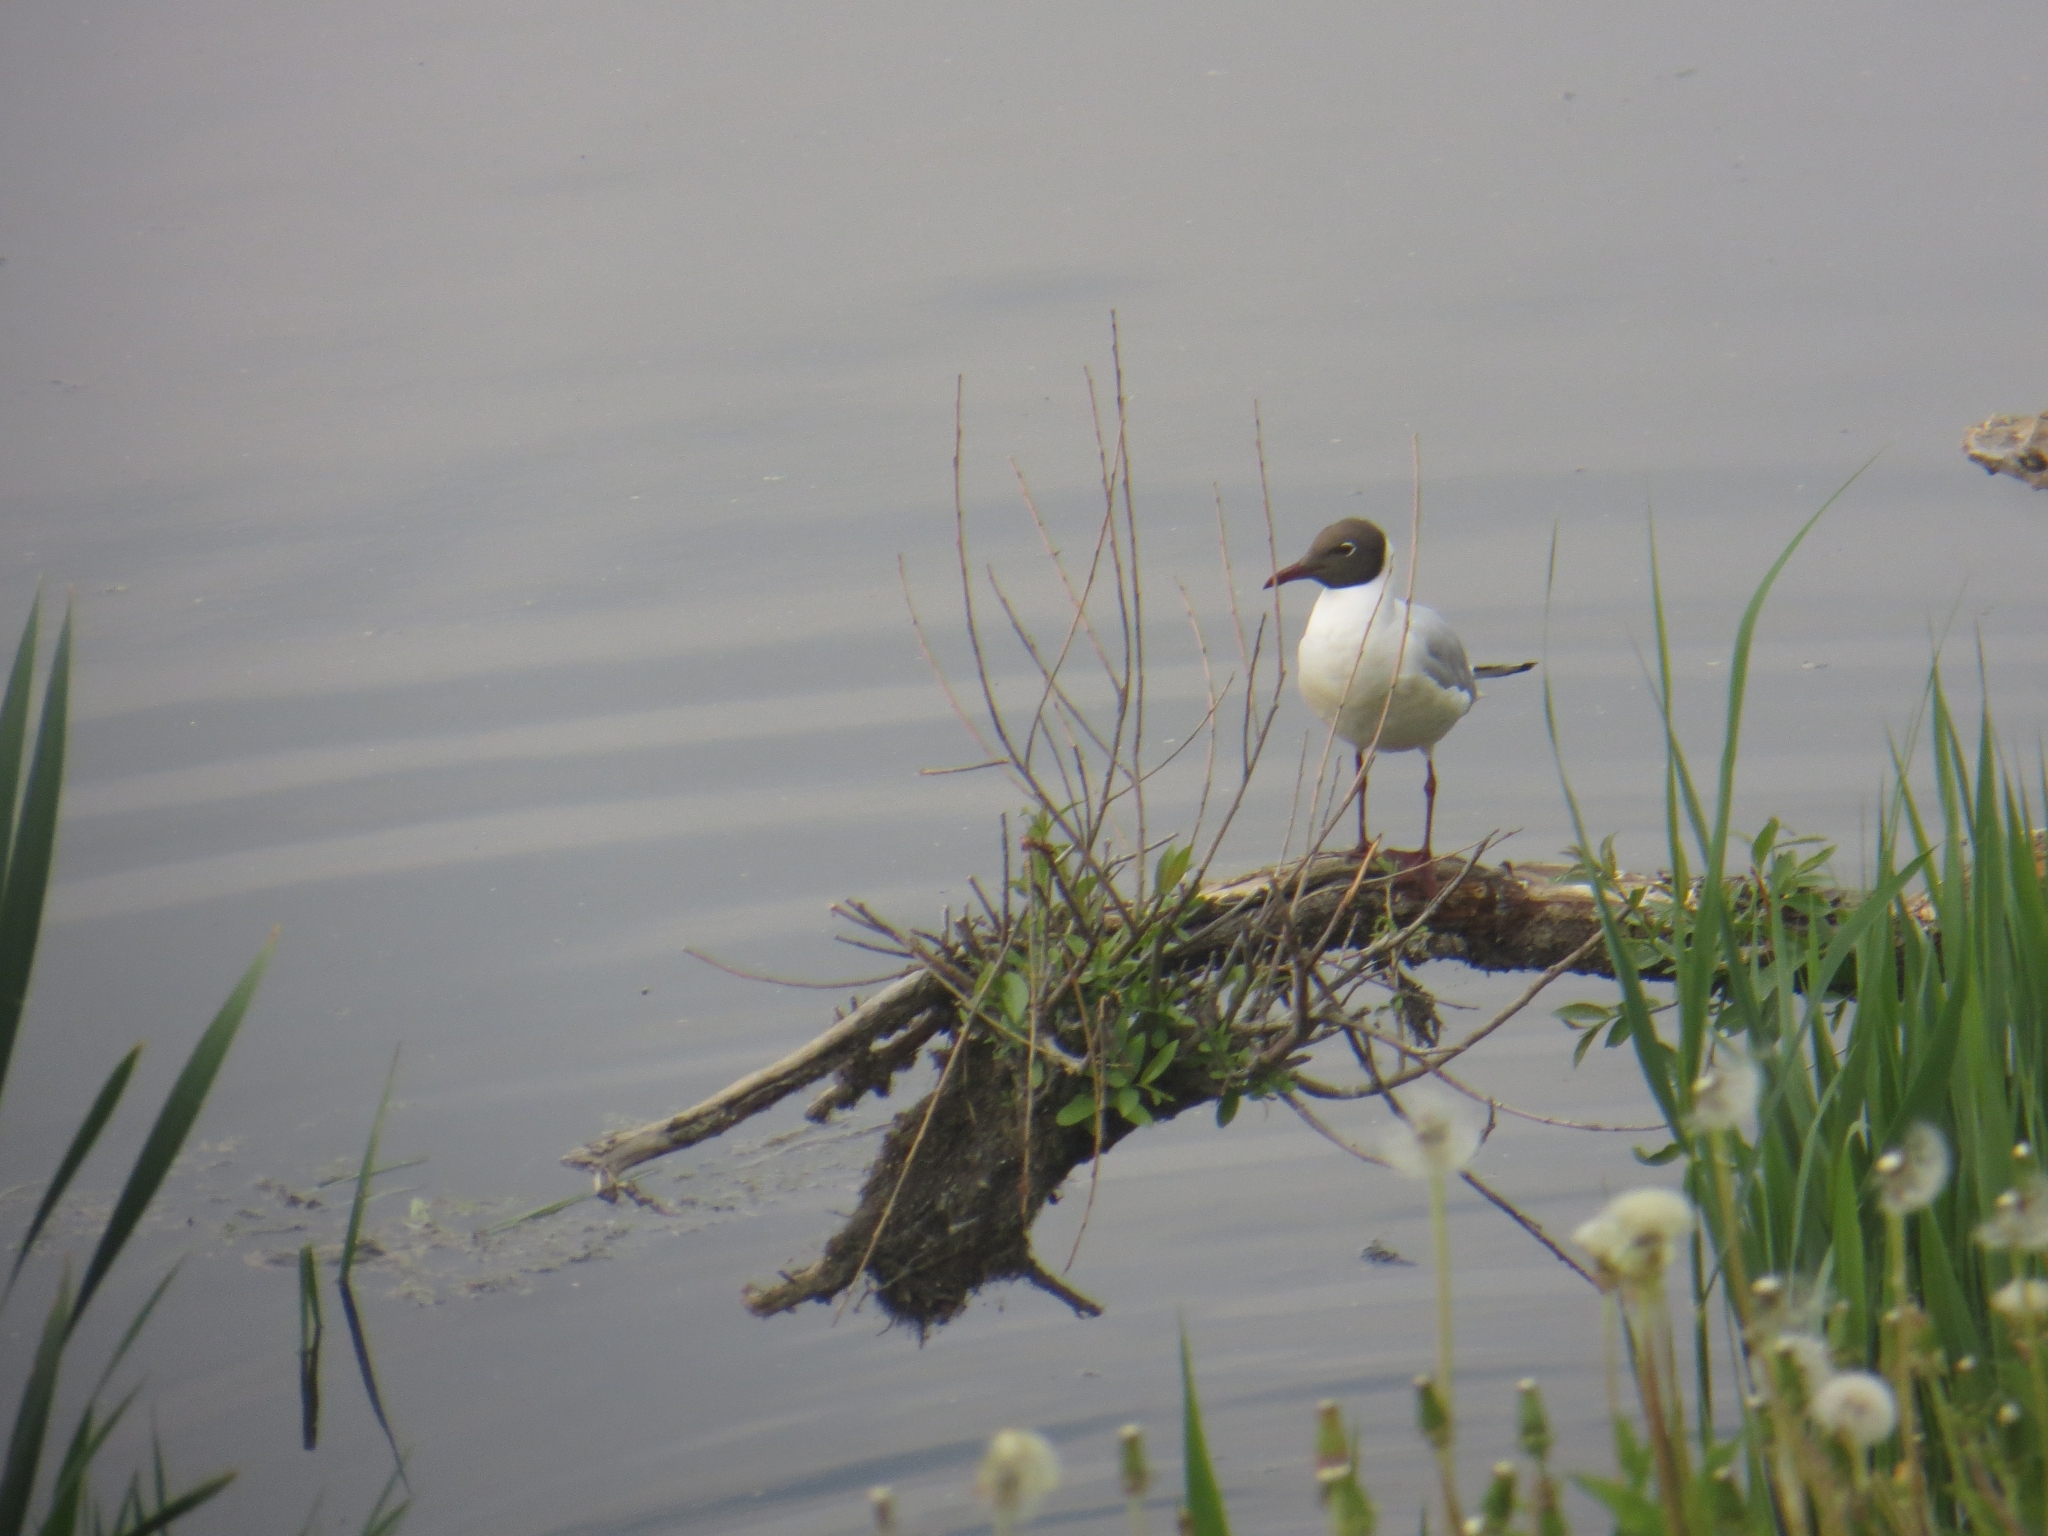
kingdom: Animalia
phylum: Chordata
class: Aves
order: Charadriiformes
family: Laridae
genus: Chroicocephalus
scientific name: Chroicocephalus ridibundus
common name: Black-headed gull
